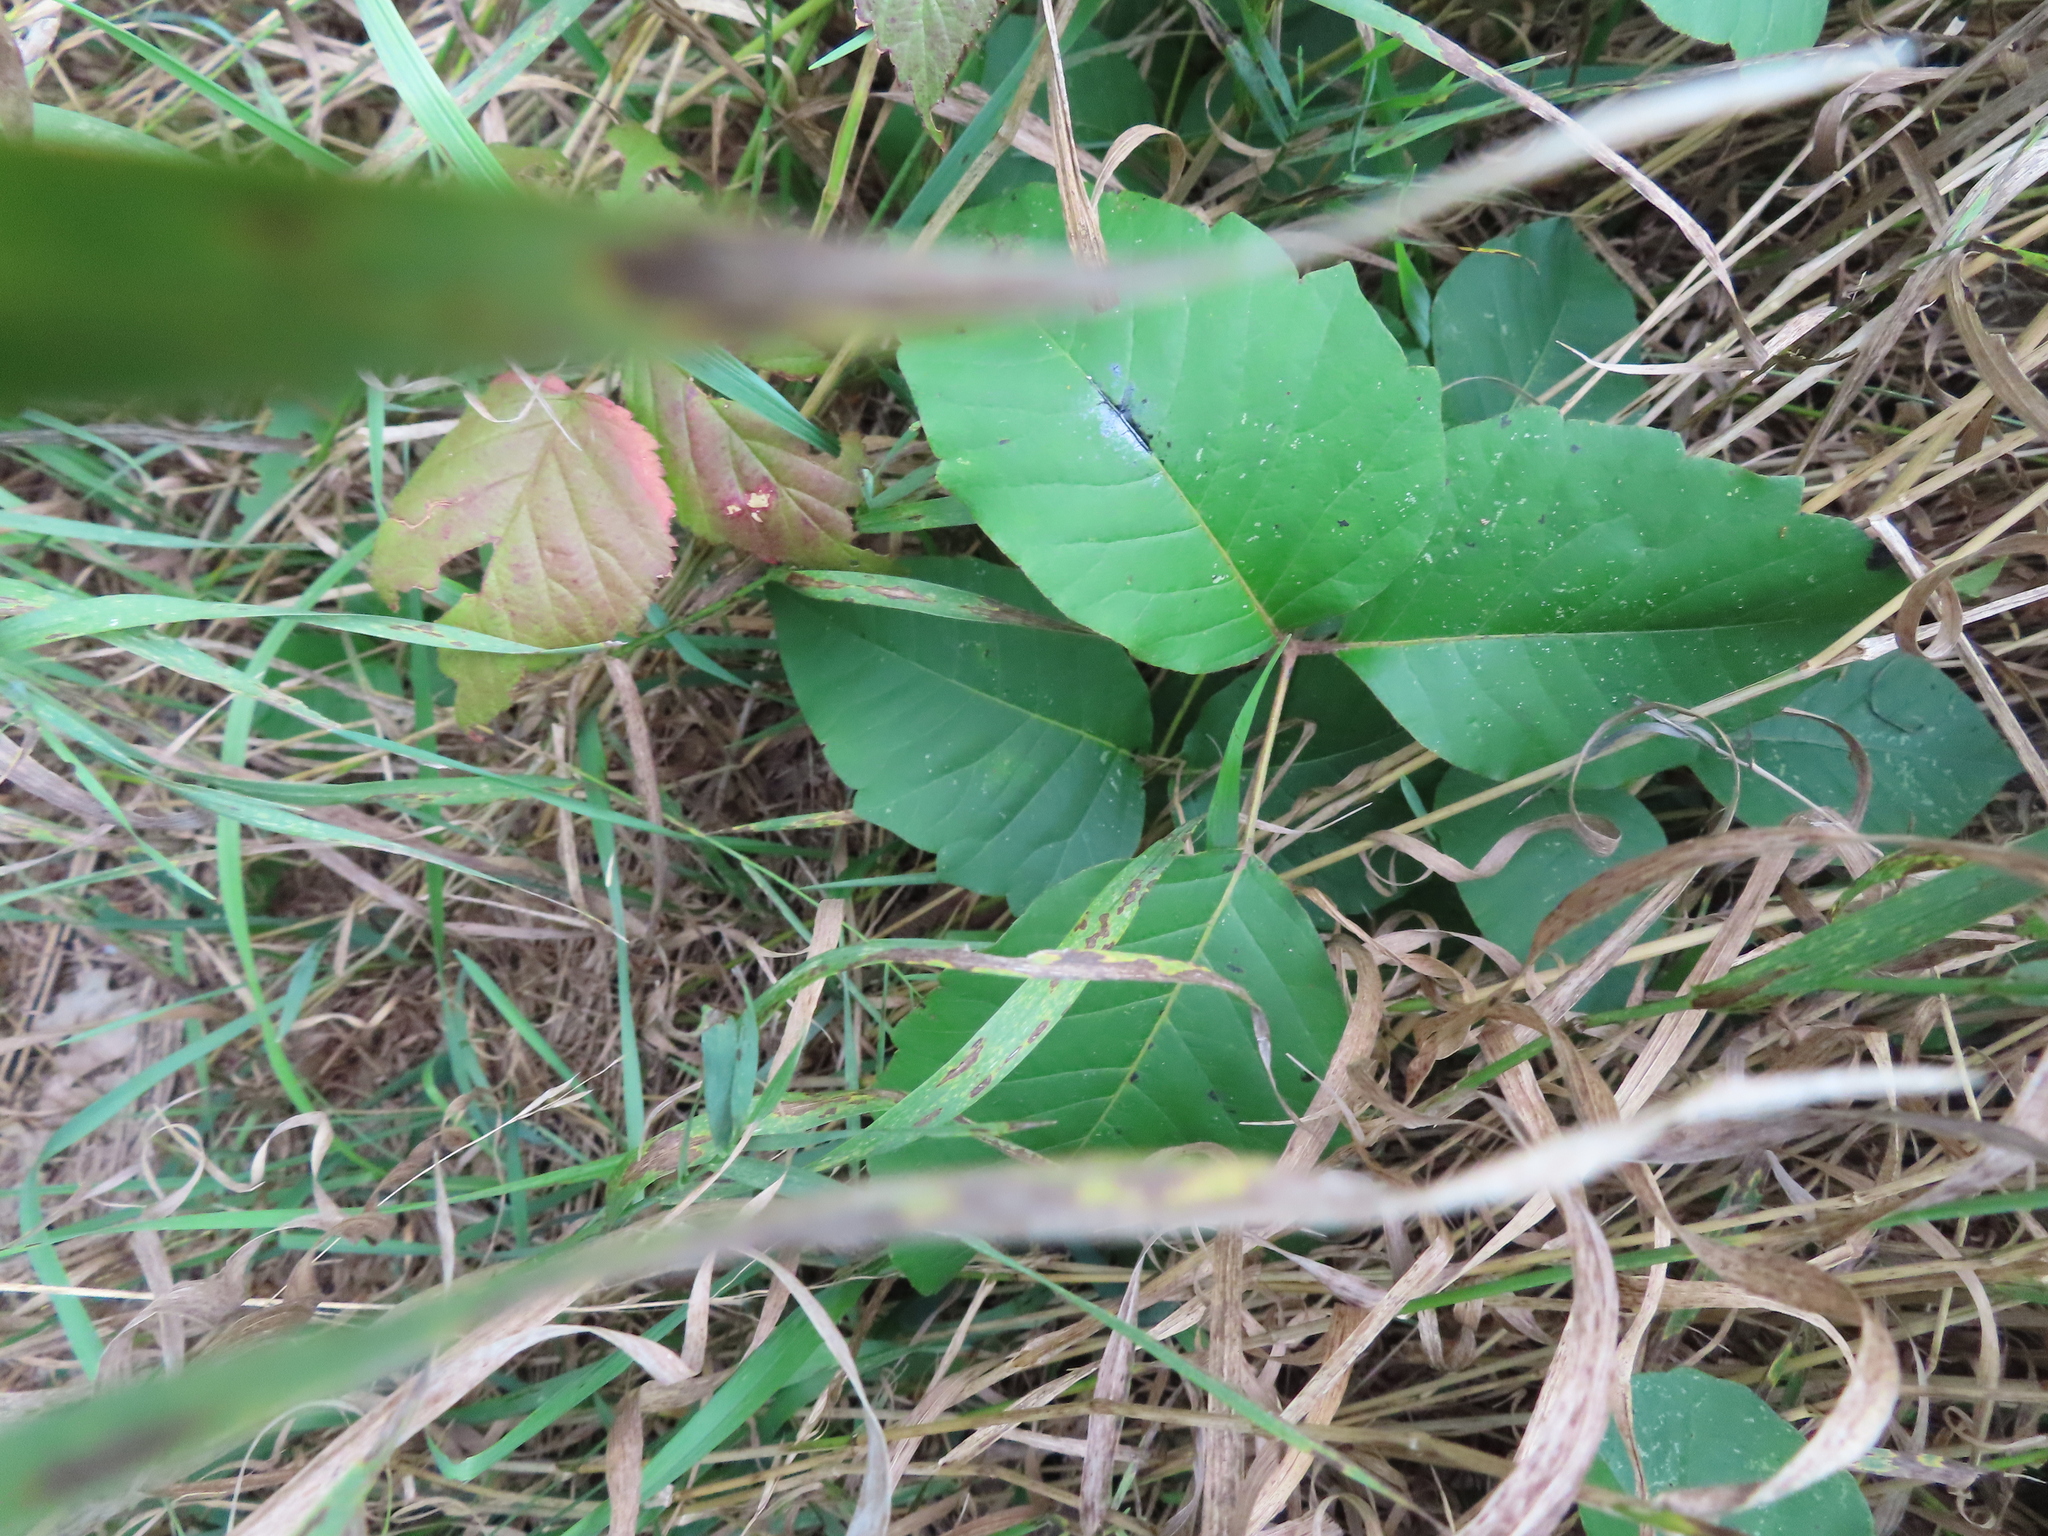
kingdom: Plantae
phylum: Tracheophyta
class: Magnoliopsida
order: Sapindales
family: Anacardiaceae
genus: Toxicodendron
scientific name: Toxicodendron radicans
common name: Poison ivy
